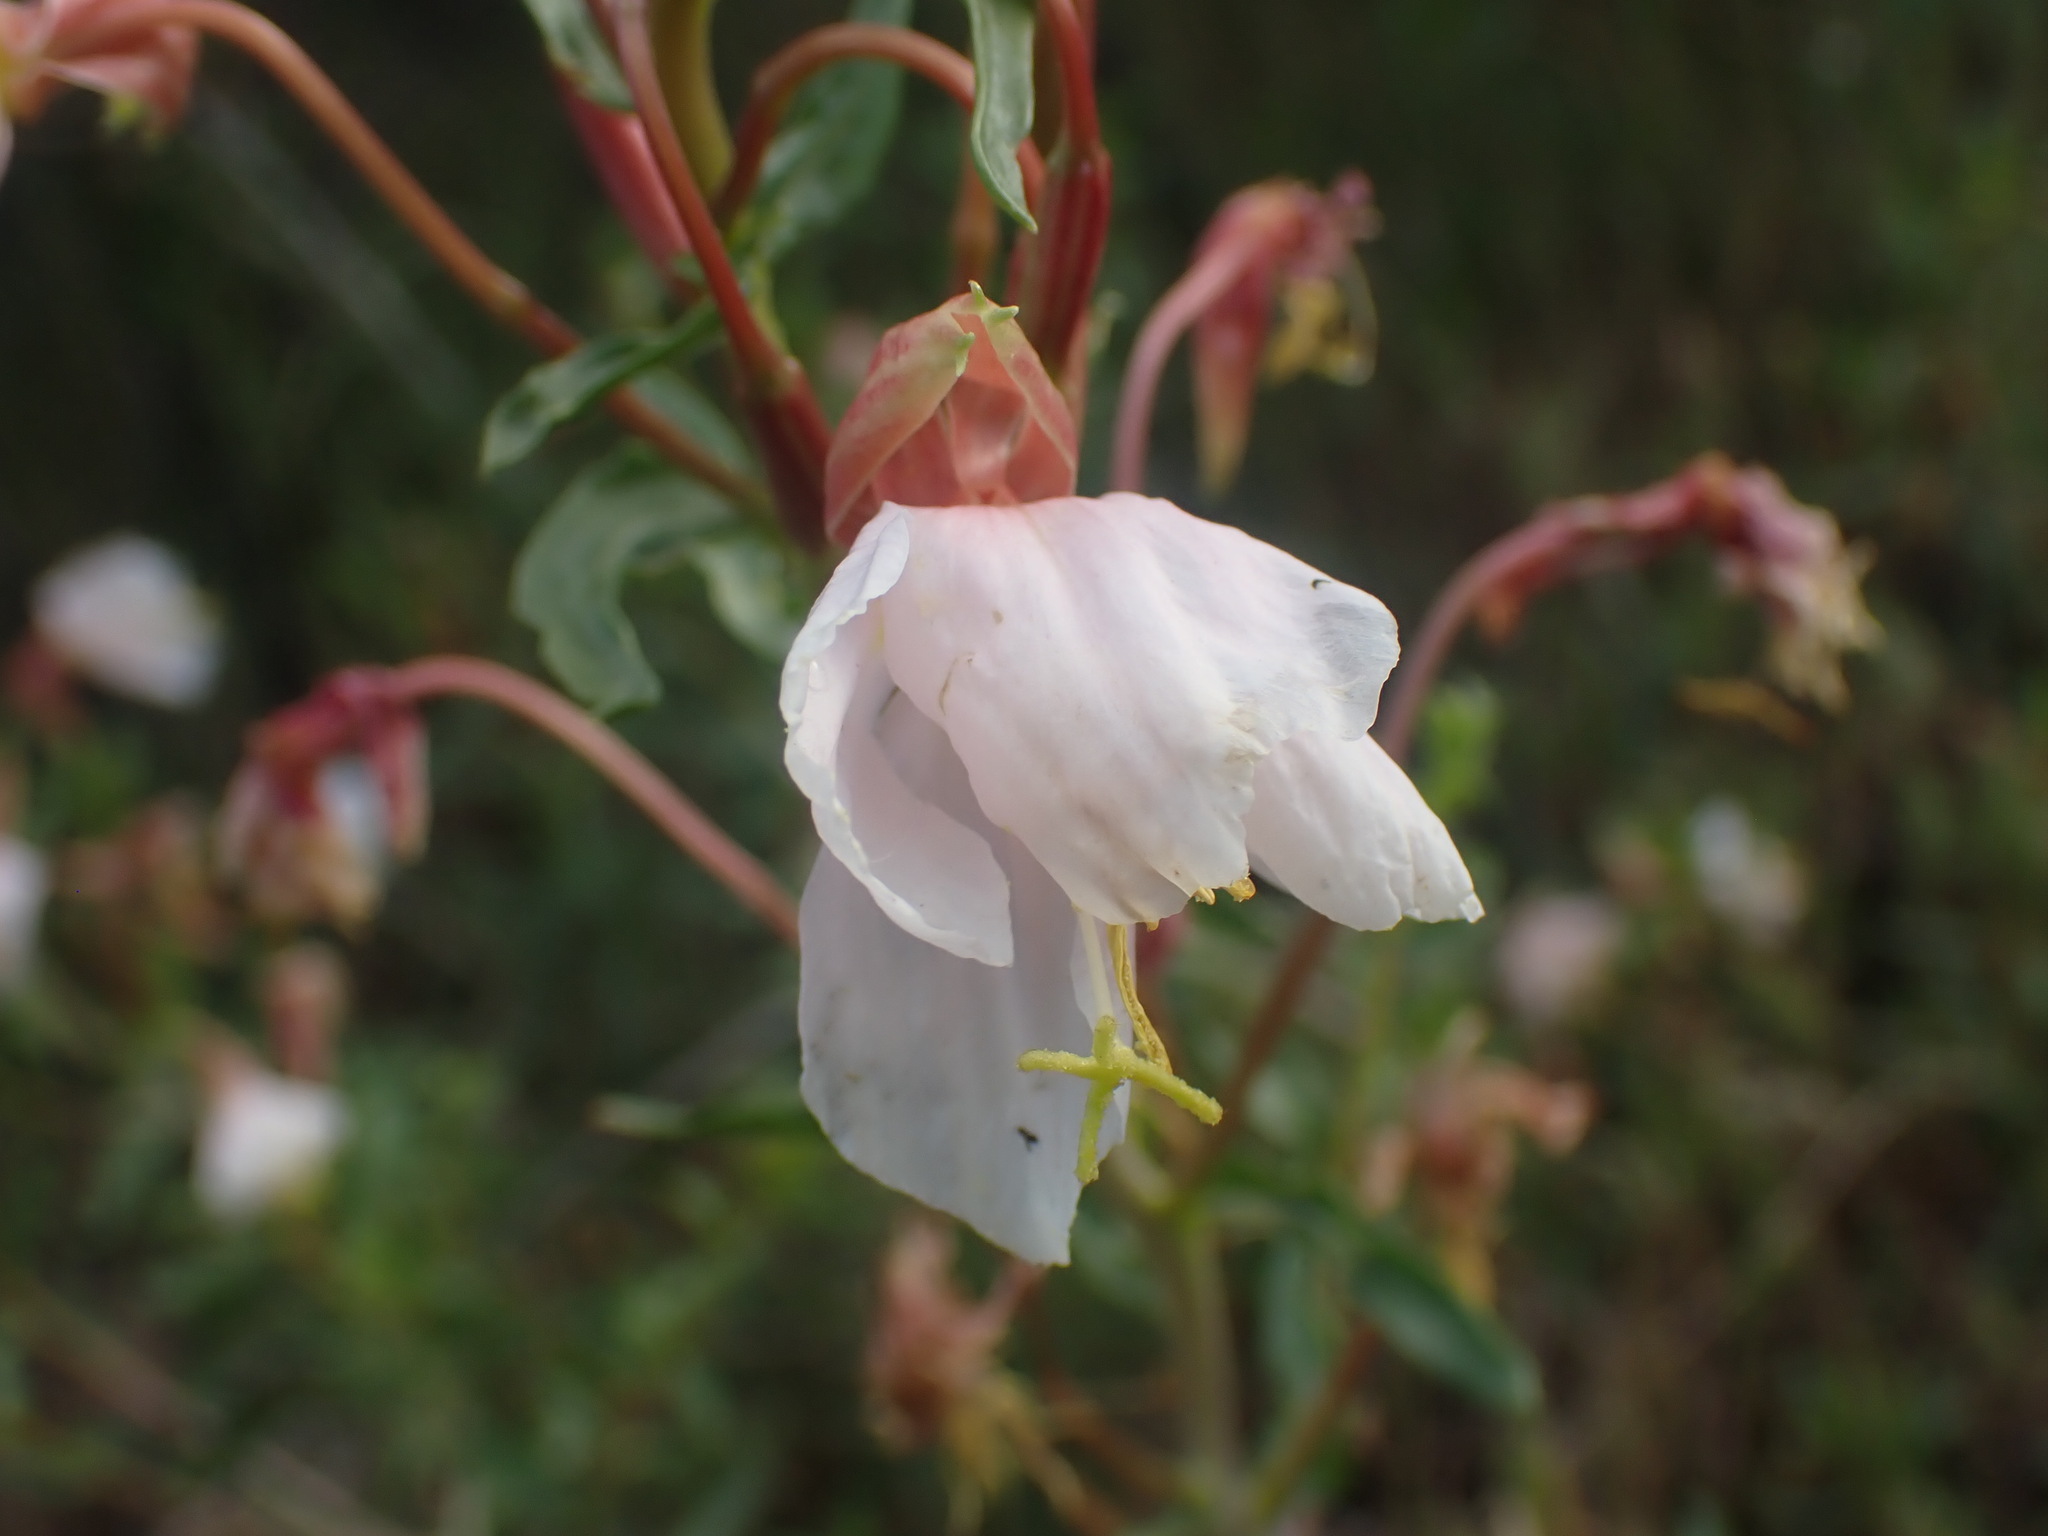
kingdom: Plantae
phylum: Tracheophyta
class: Magnoliopsida
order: Myrtales
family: Onagraceae
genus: Oenothera
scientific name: Oenothera pallida
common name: Pale evening-primrose
